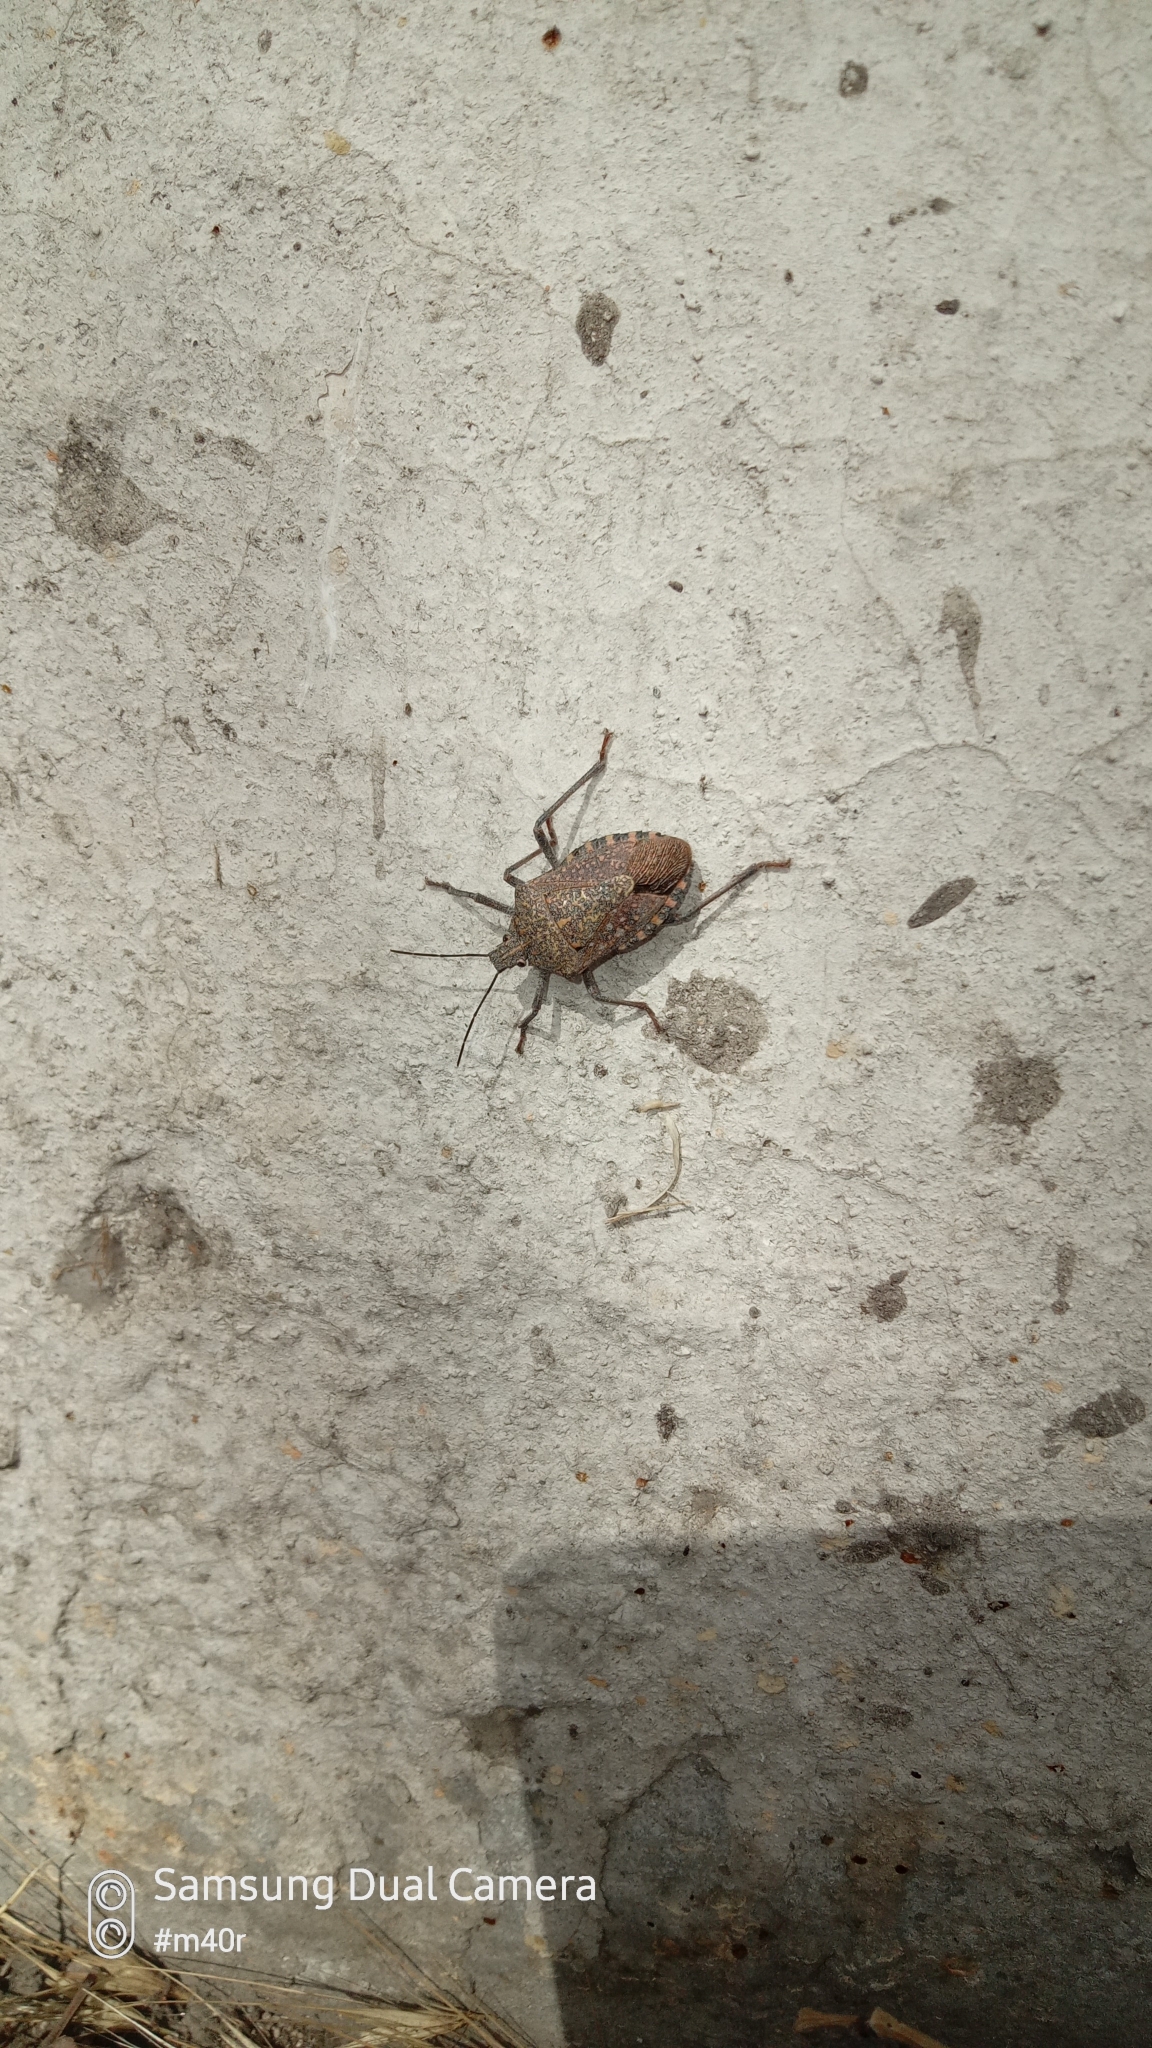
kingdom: Animalia
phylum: Arthropoda
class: Insecta
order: Hemiptera
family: Pentatomidae
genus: Apodiphus
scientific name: Apodiphus
